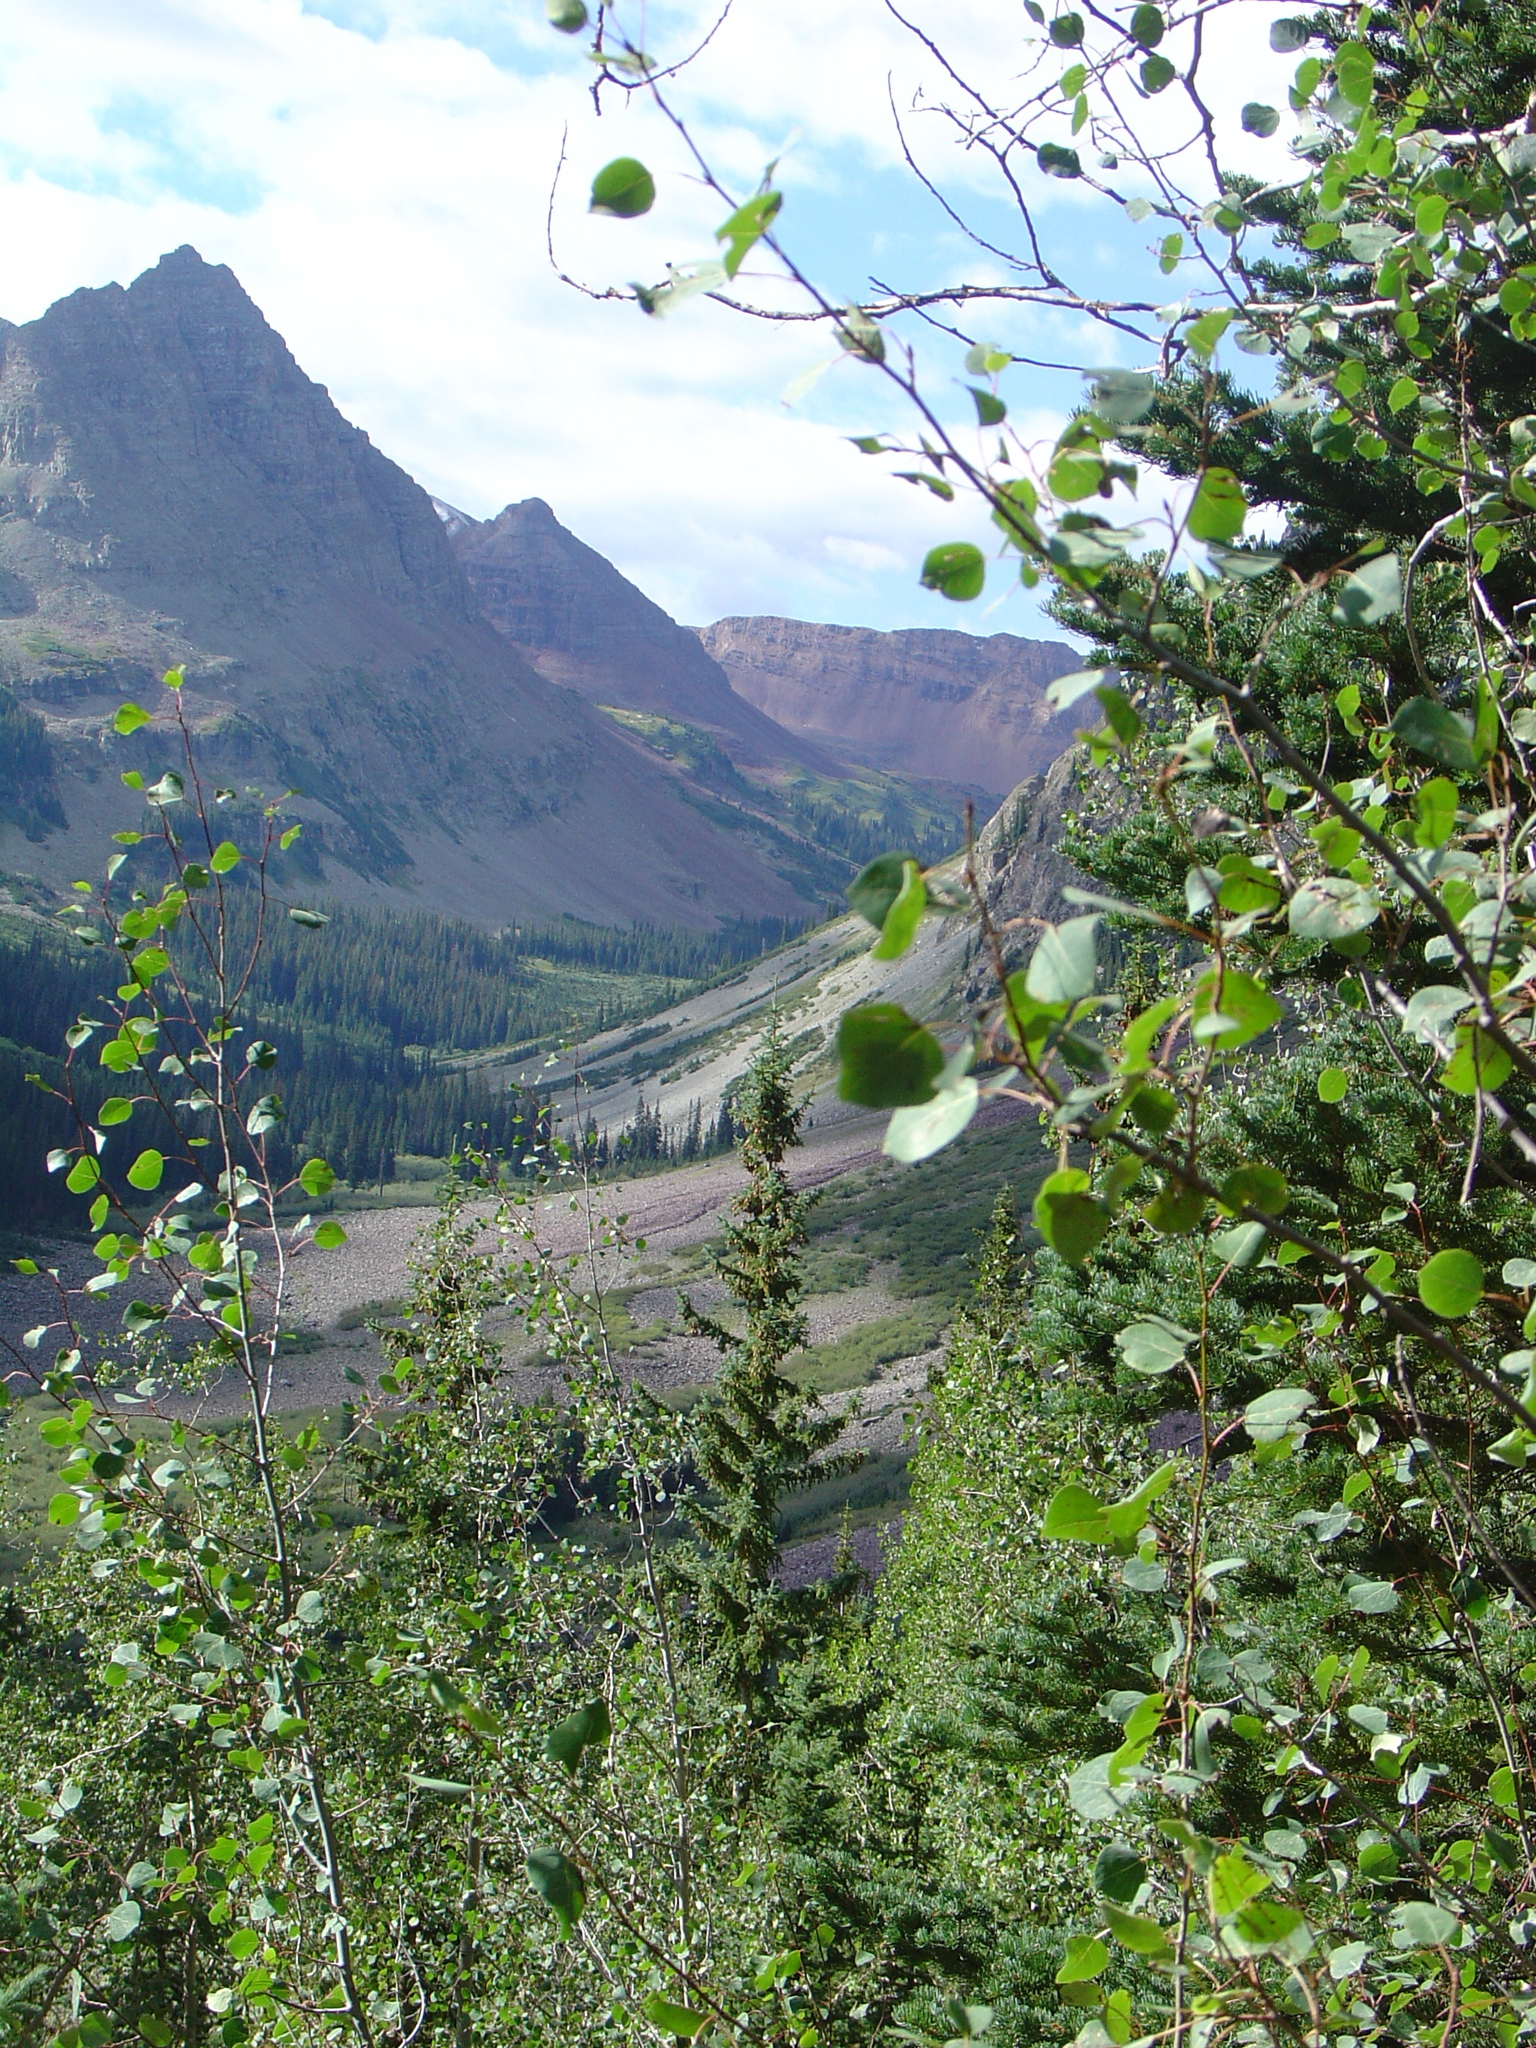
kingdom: Plantae
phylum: Tracheophyta
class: Magnoliopsida
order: Malpighiales
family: Salicaceae
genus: Populus
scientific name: Populus tremuloides
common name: Quaking aspen
